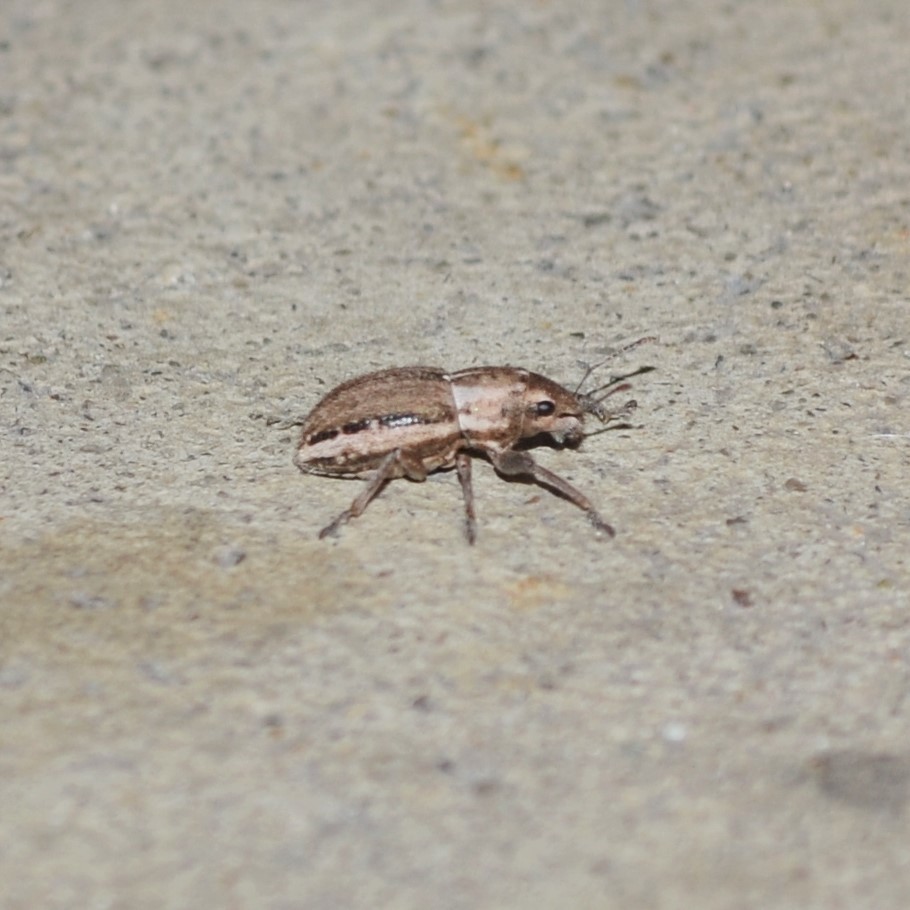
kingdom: Animalia
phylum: Arthropoda
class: Insecta
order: Coleoptera
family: Curculionidae
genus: Naupactus
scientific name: Naupactus peregrinus
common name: Whitefringed beetle
